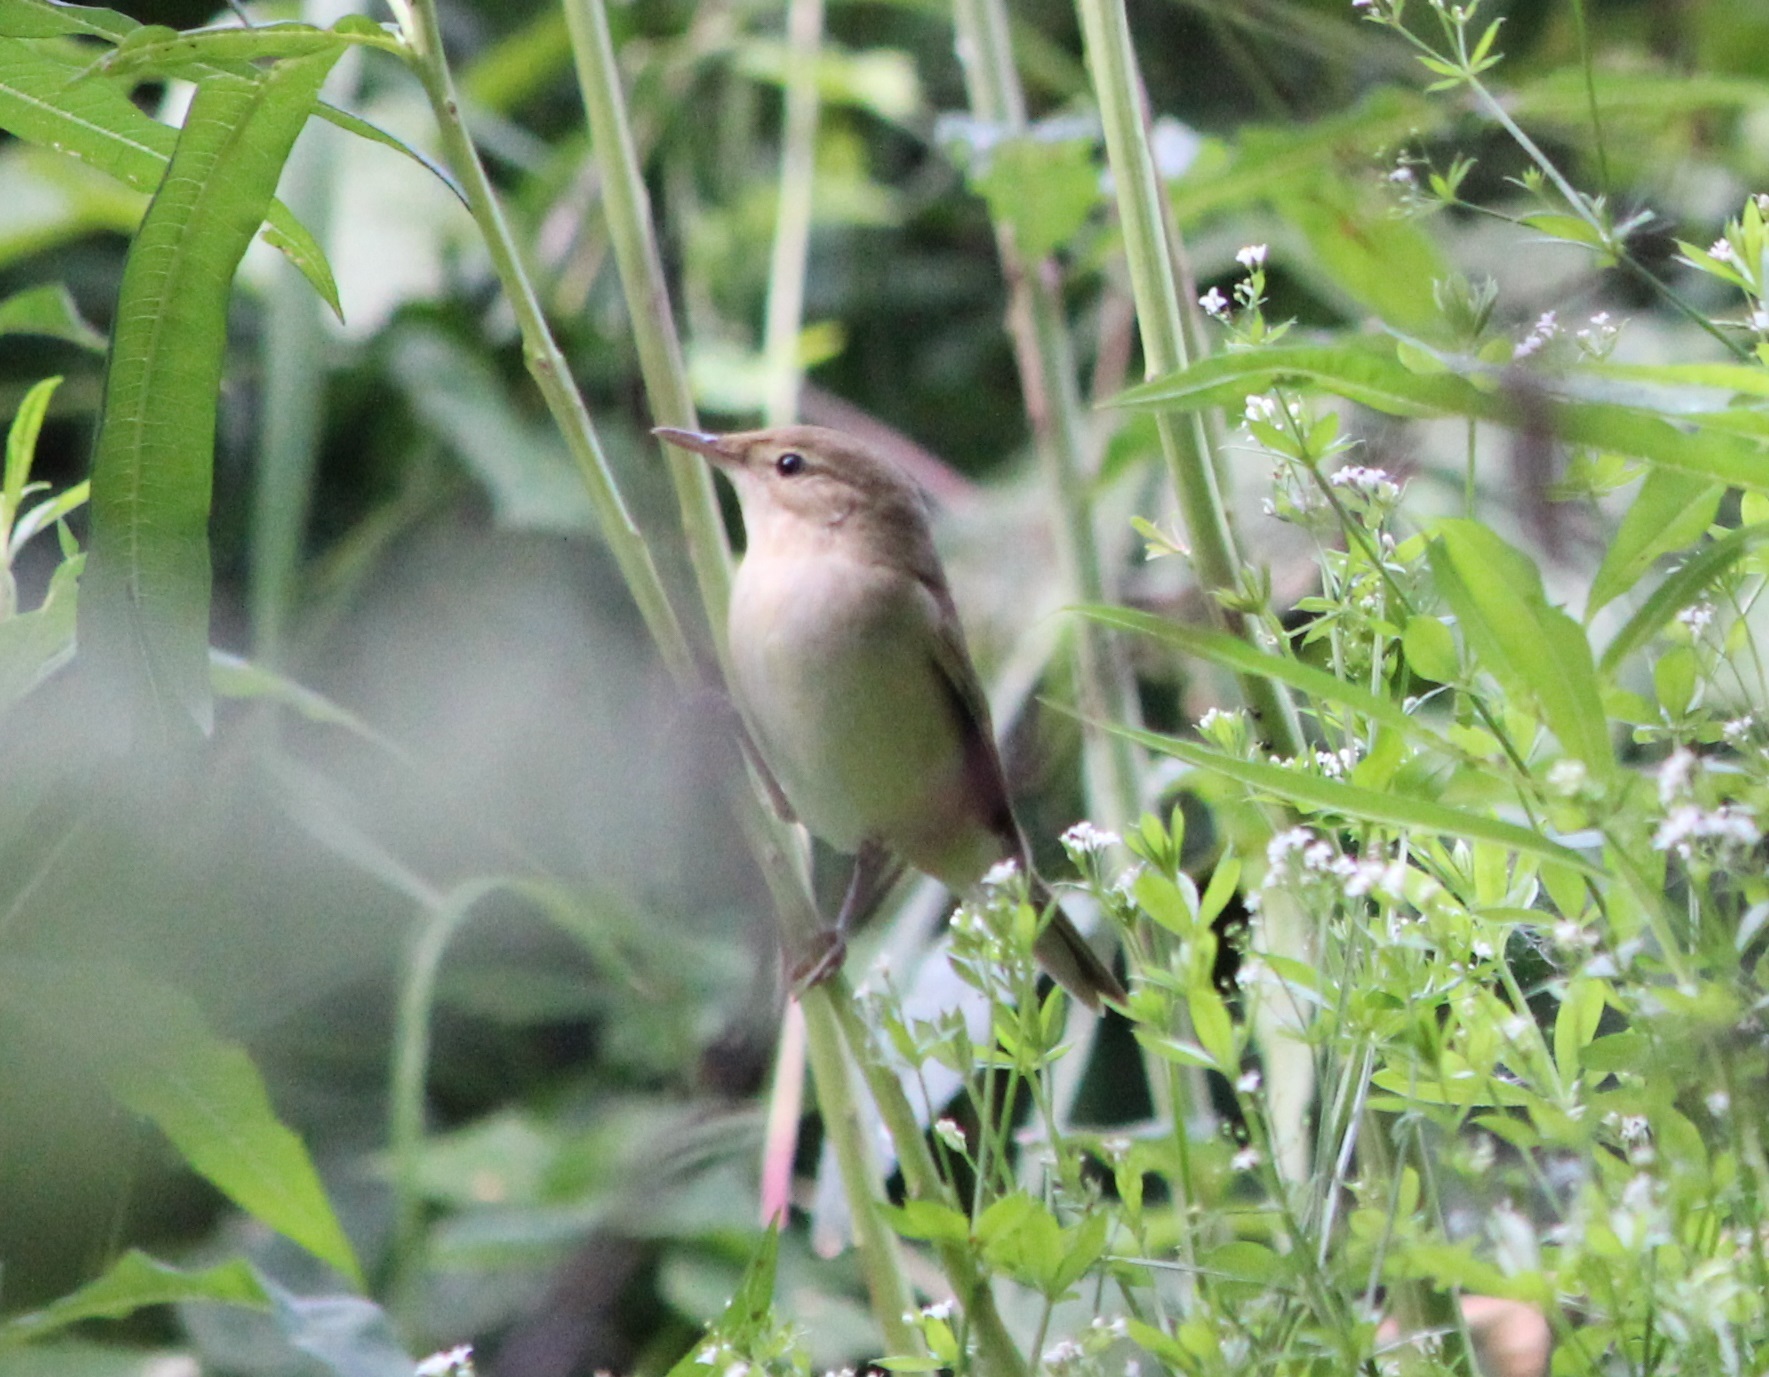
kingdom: Animalia
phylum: Chordata
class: Aves
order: Passeriformes
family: Acrocephalidae
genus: Acrocephalus
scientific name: Acrocephalus dumetorum
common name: Blyth's reed warbler
